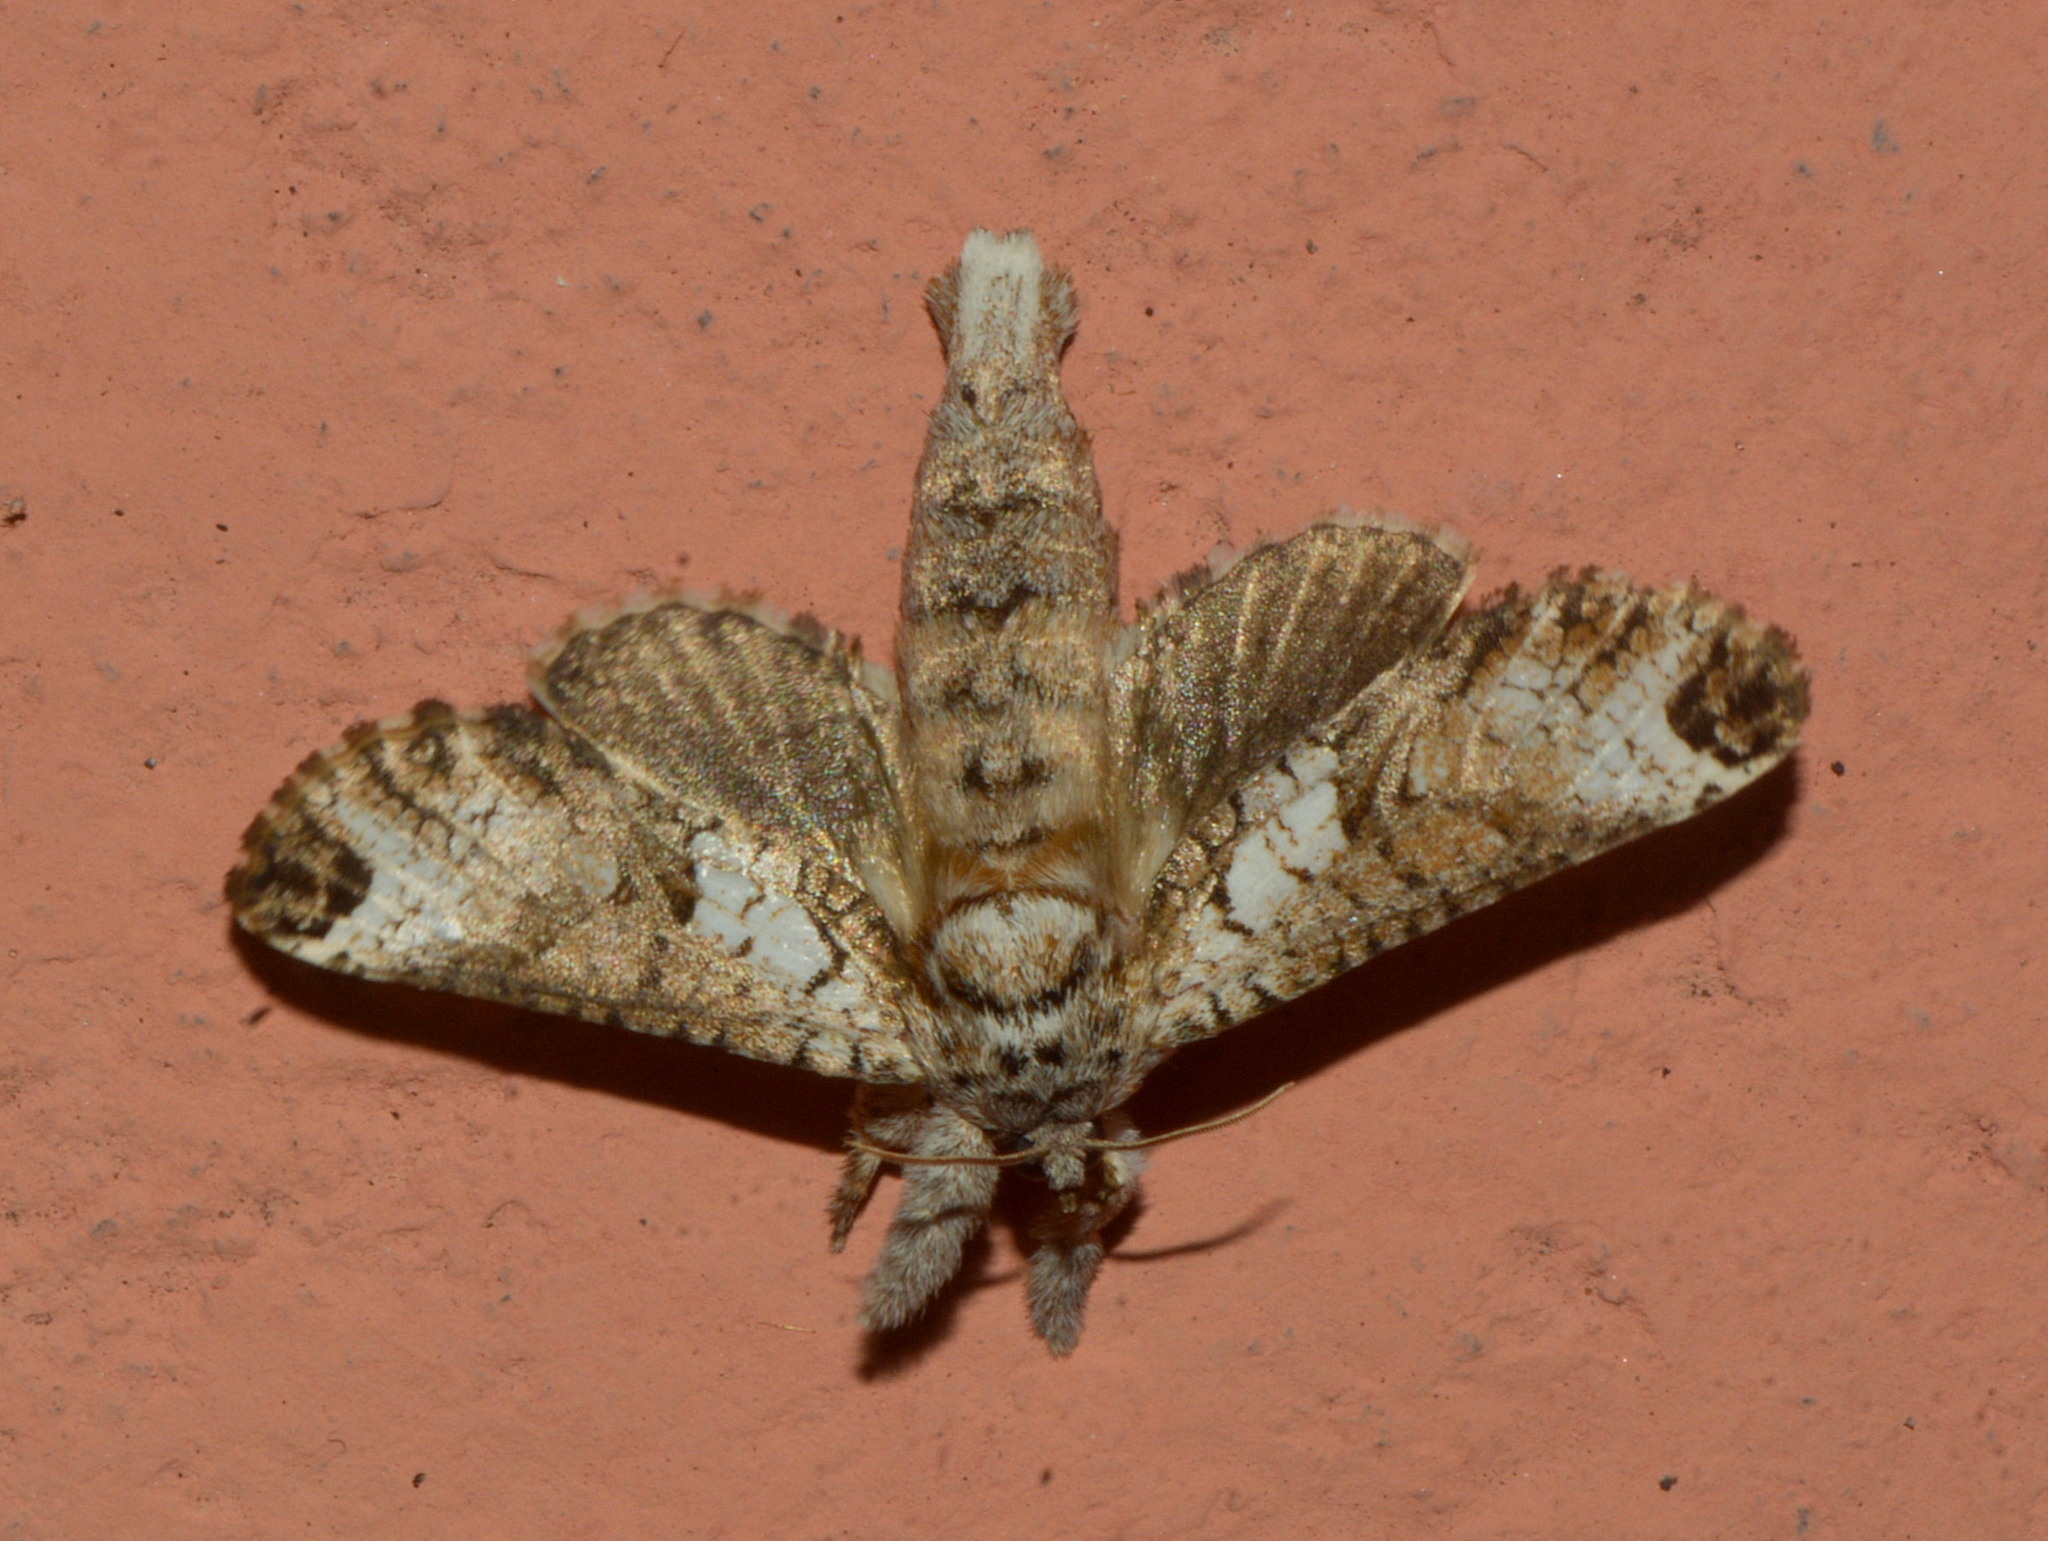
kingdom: Animalia
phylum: Arthropoda
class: Insecta
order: Lepidoptera
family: Cossidae
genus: Langsdorfia
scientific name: Langsdorfia polybia
